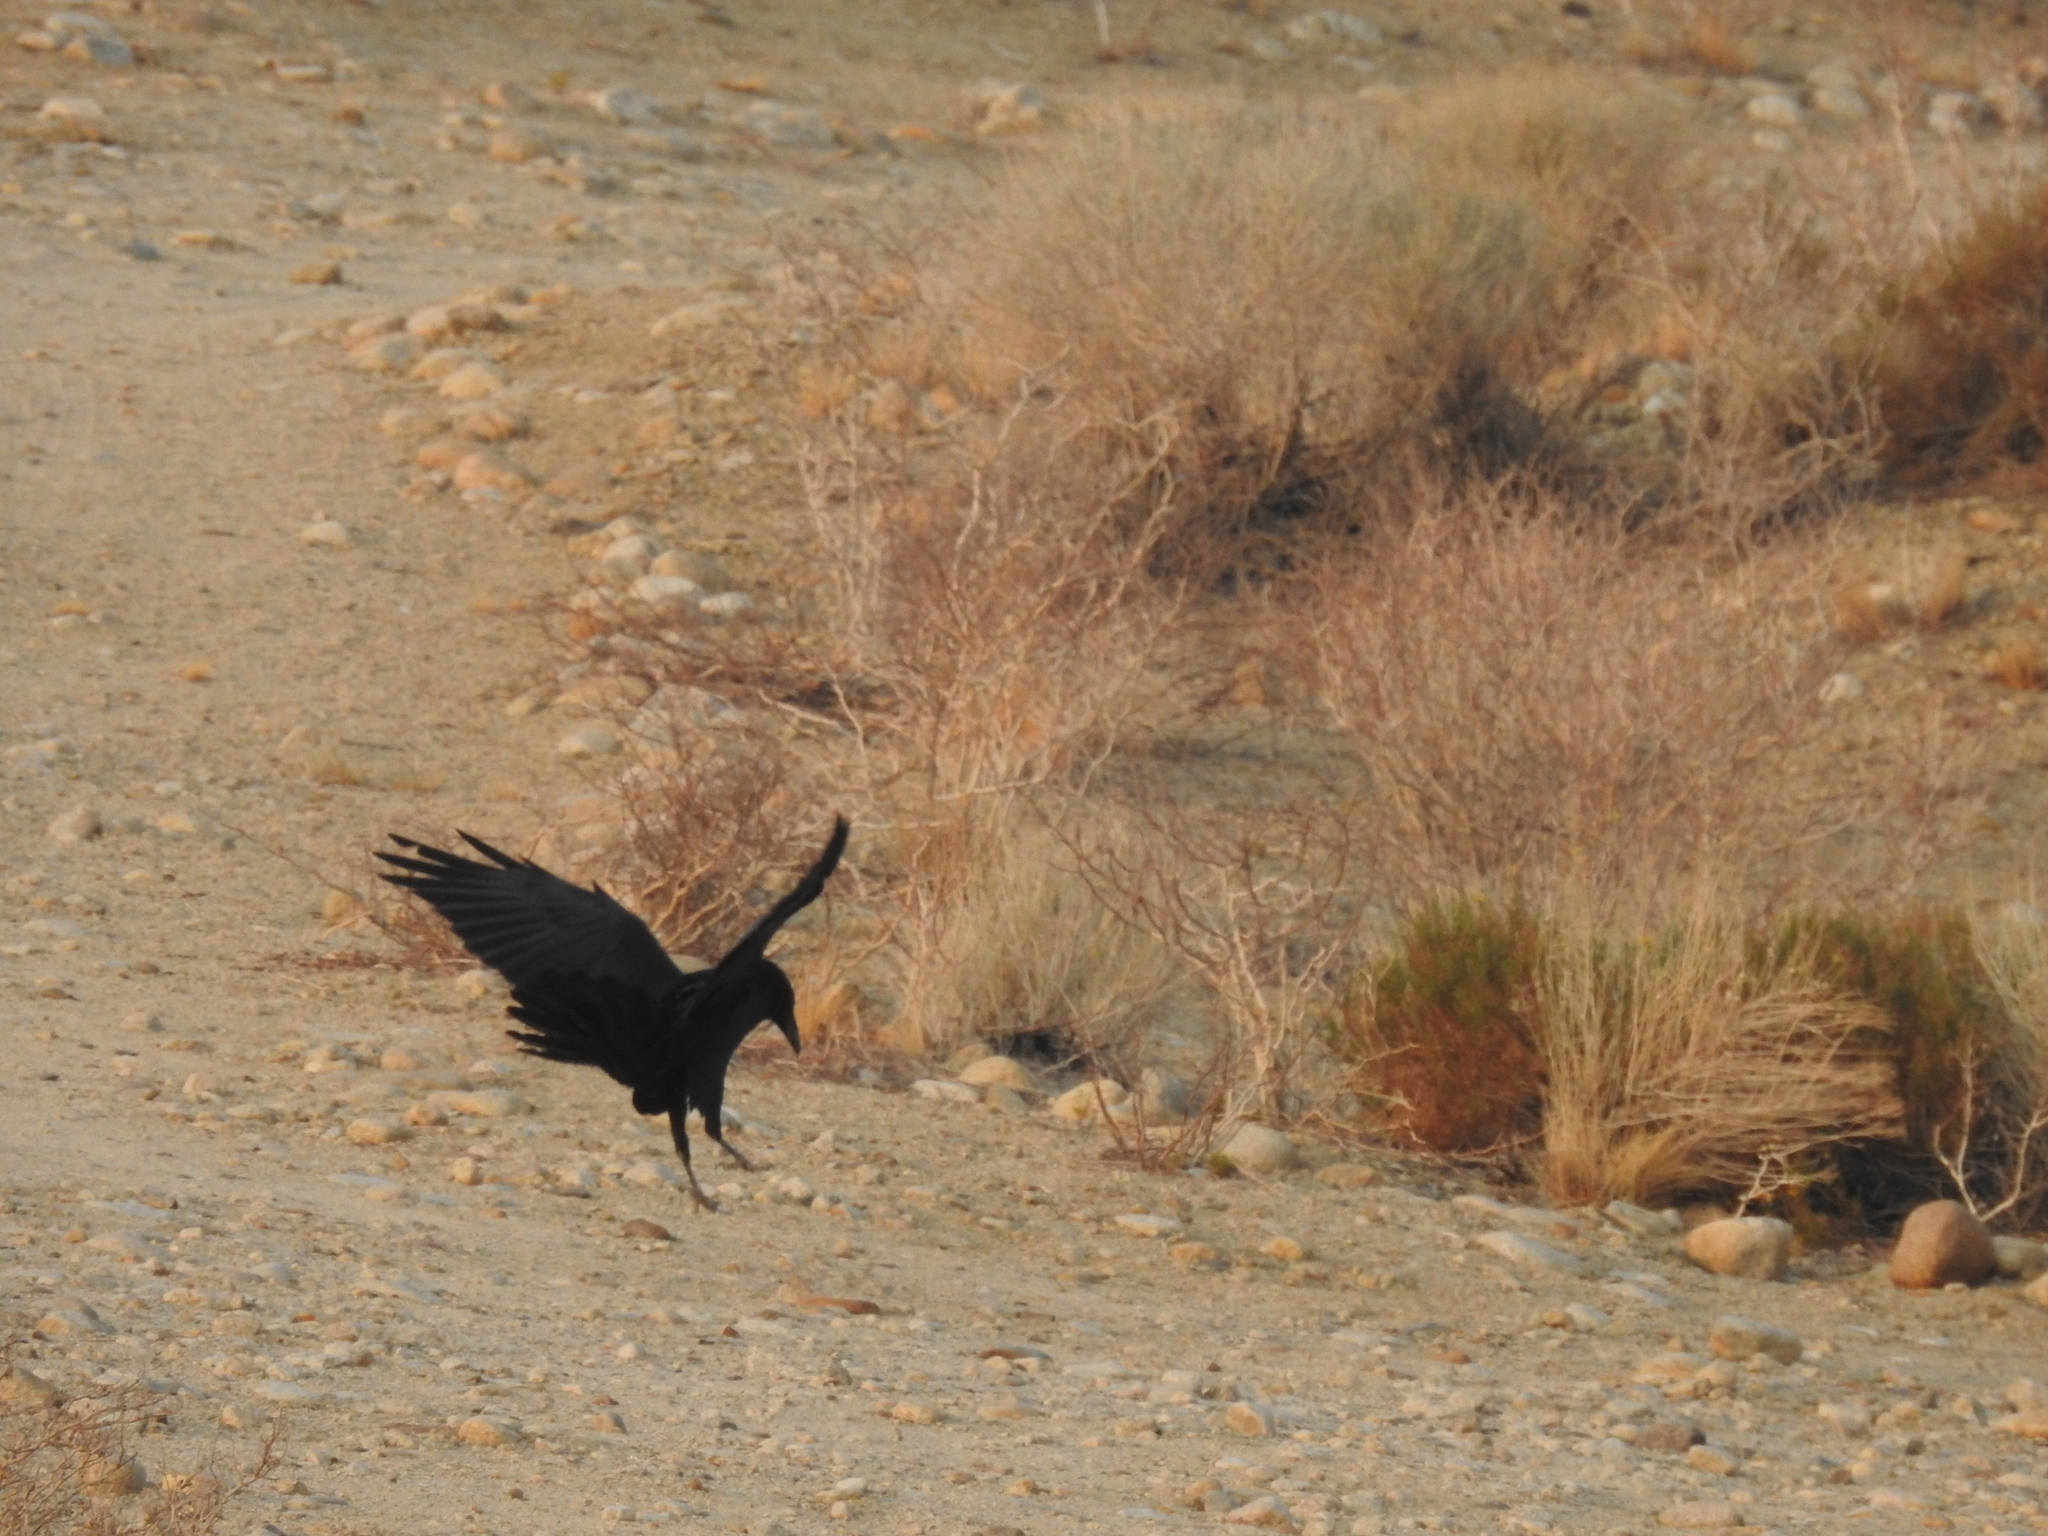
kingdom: Animalia
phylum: Chordata
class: Aves
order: Passeriformes
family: Corvidae
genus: Corvus
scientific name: Corvus corax
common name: Common raven
